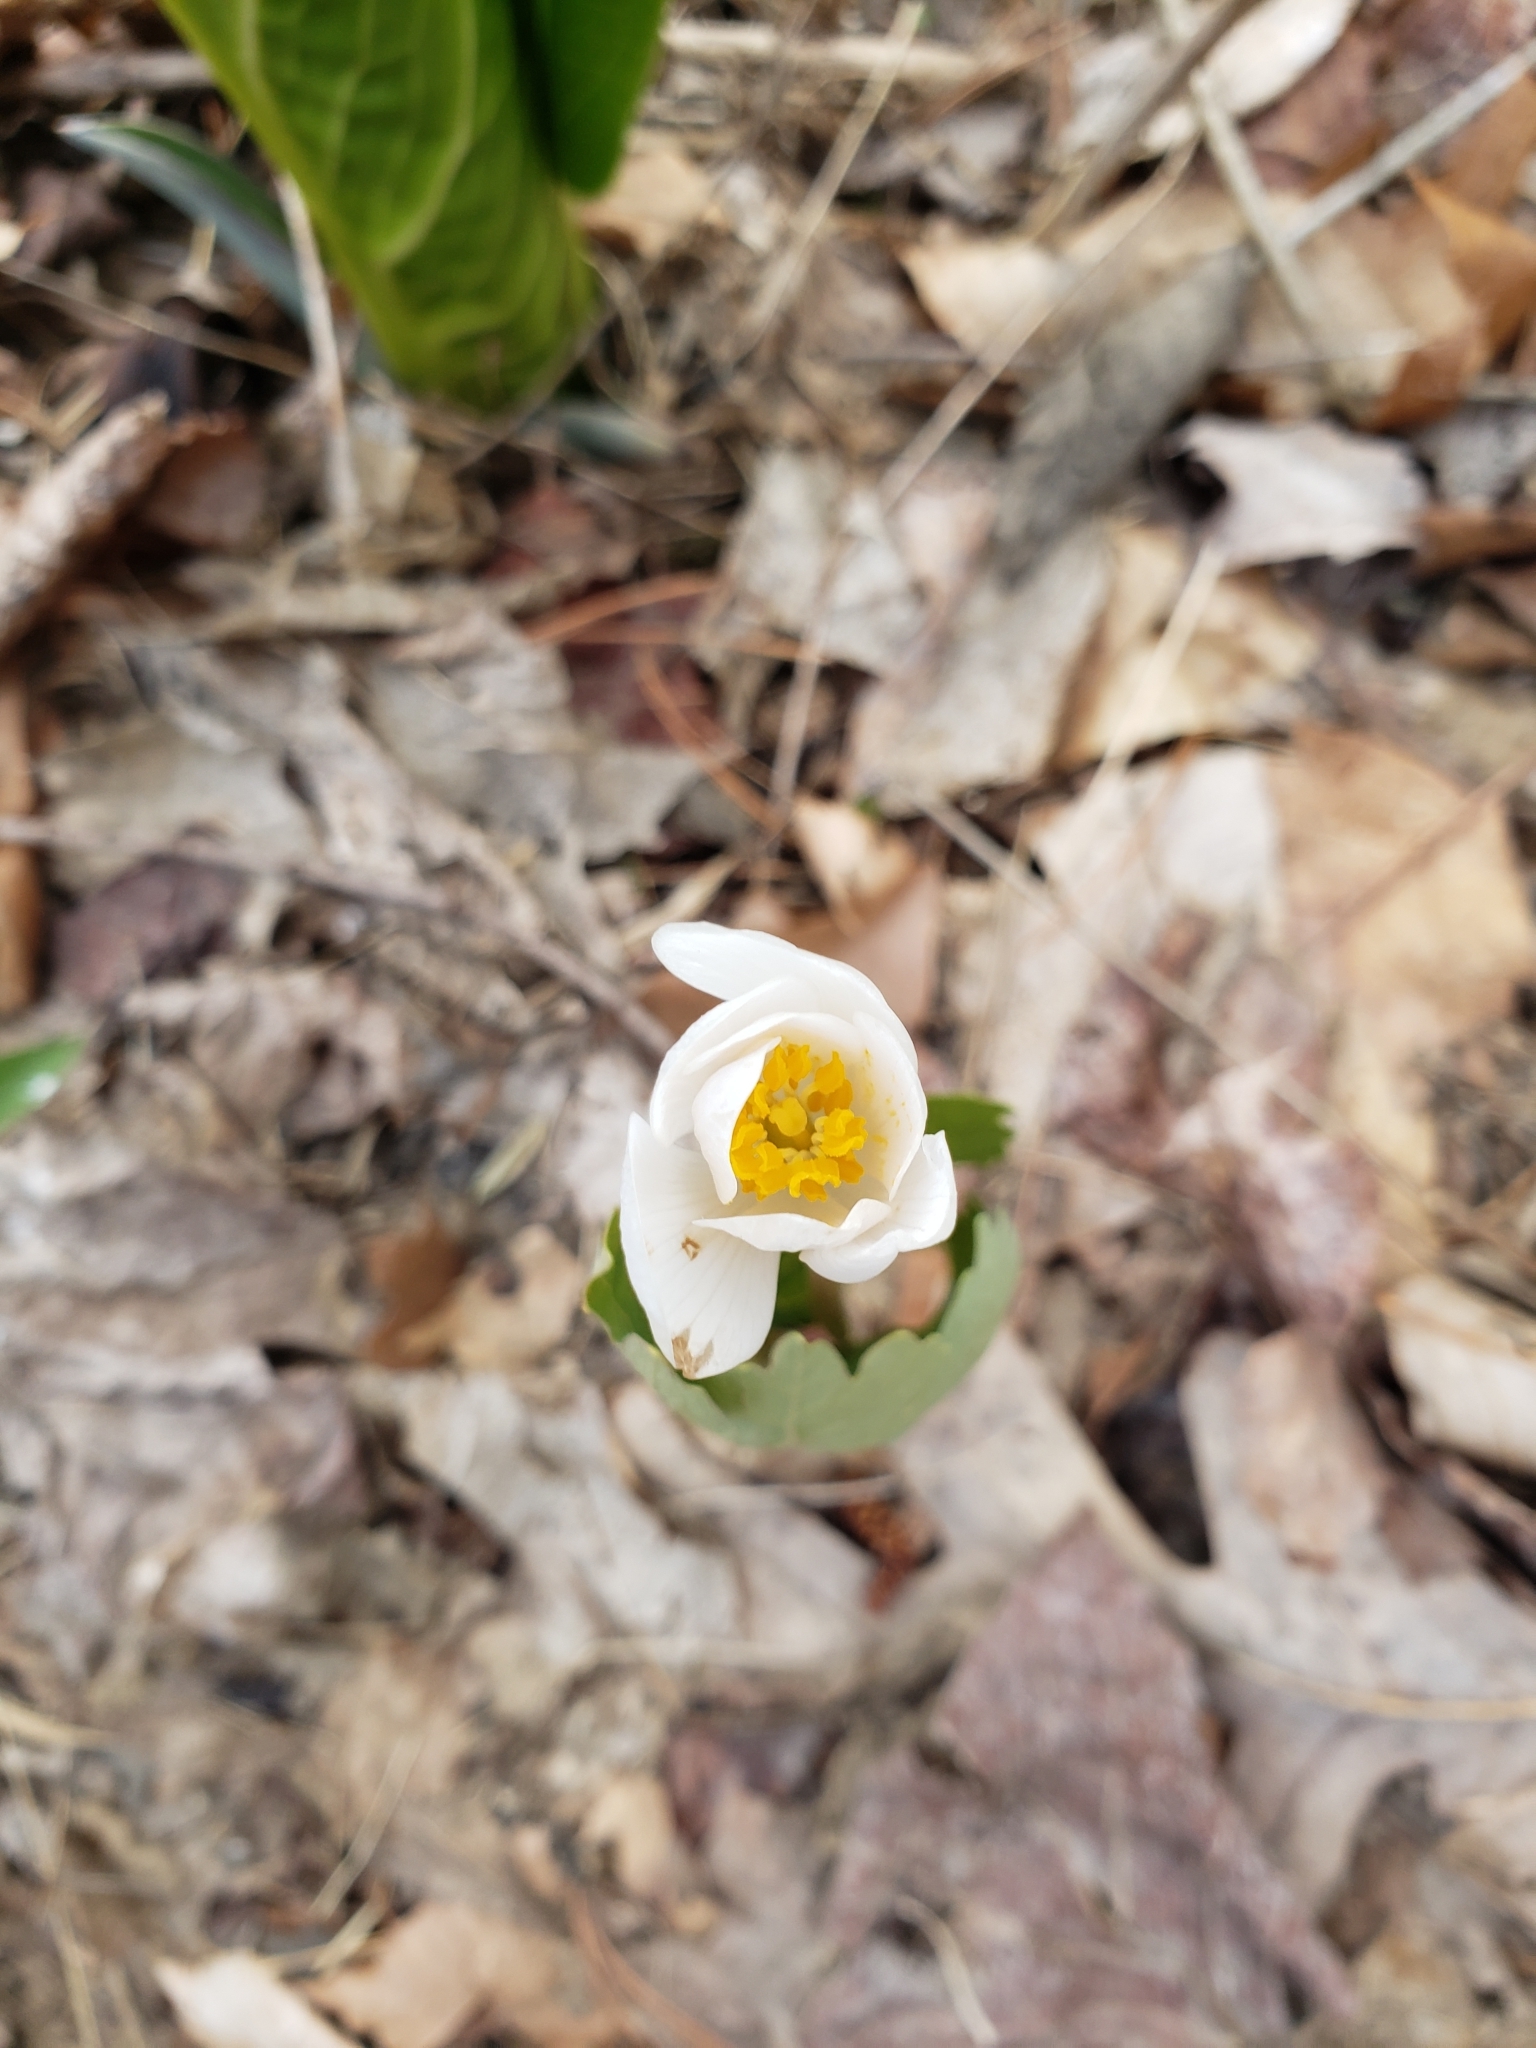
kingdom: Plantae
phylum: Tracheophyta
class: Magnoliopsida
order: Ranunculales
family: Papaveraceae
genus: Sanguinaria
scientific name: Sanguinaria canadensis
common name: Bloodroot
